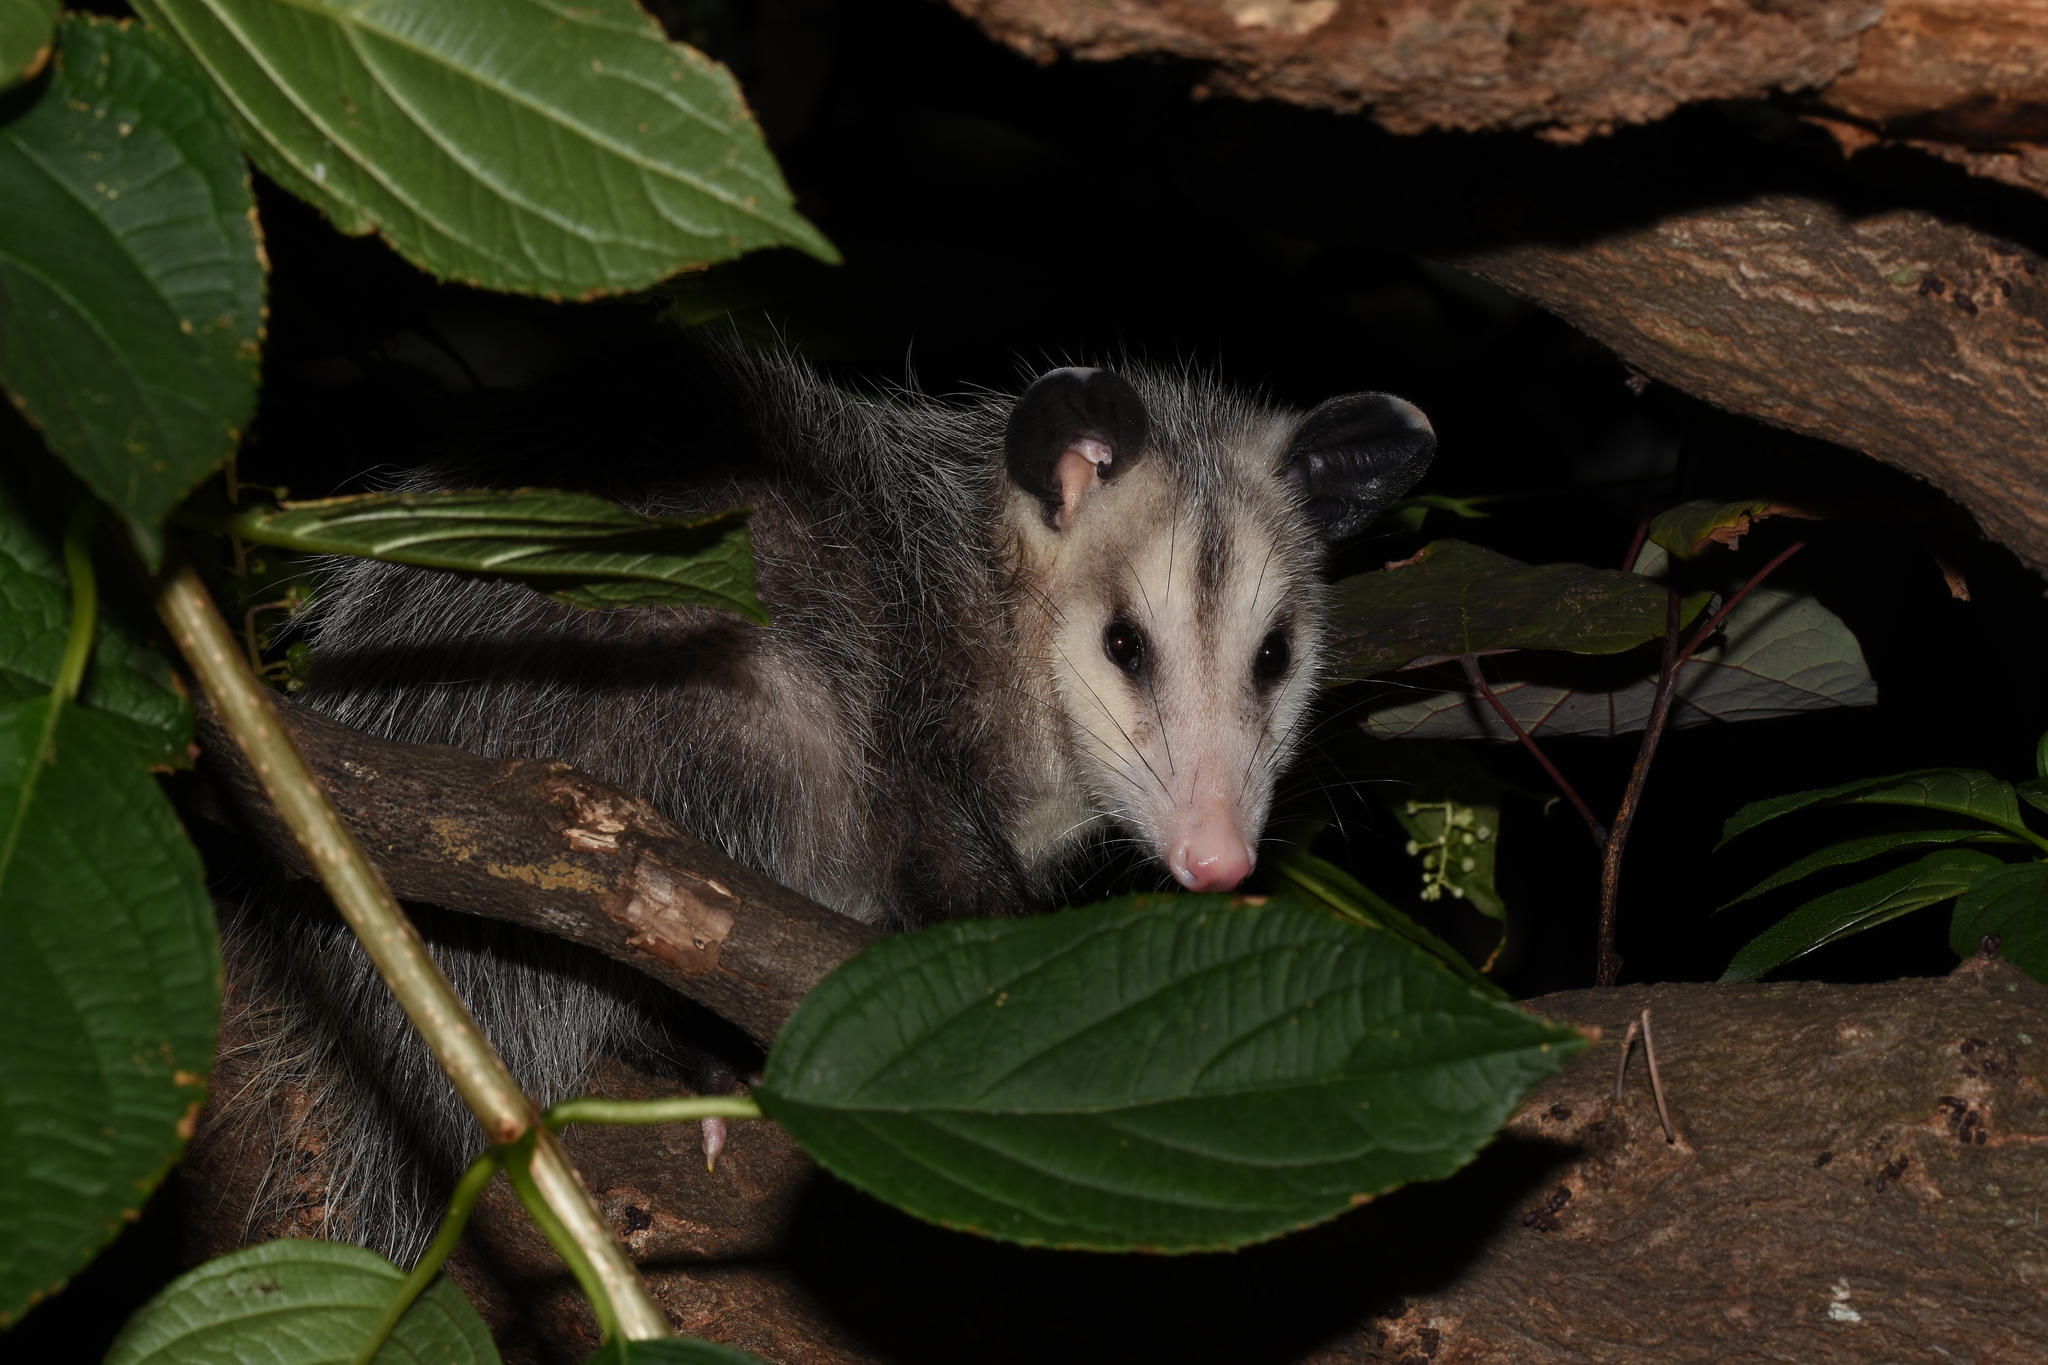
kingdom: Animalia
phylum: Chordata
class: Mammalia
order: Didelphimorphia
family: Didelphidae
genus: Didelphis
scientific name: Didelphis virginiana
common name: Virginia opossum
